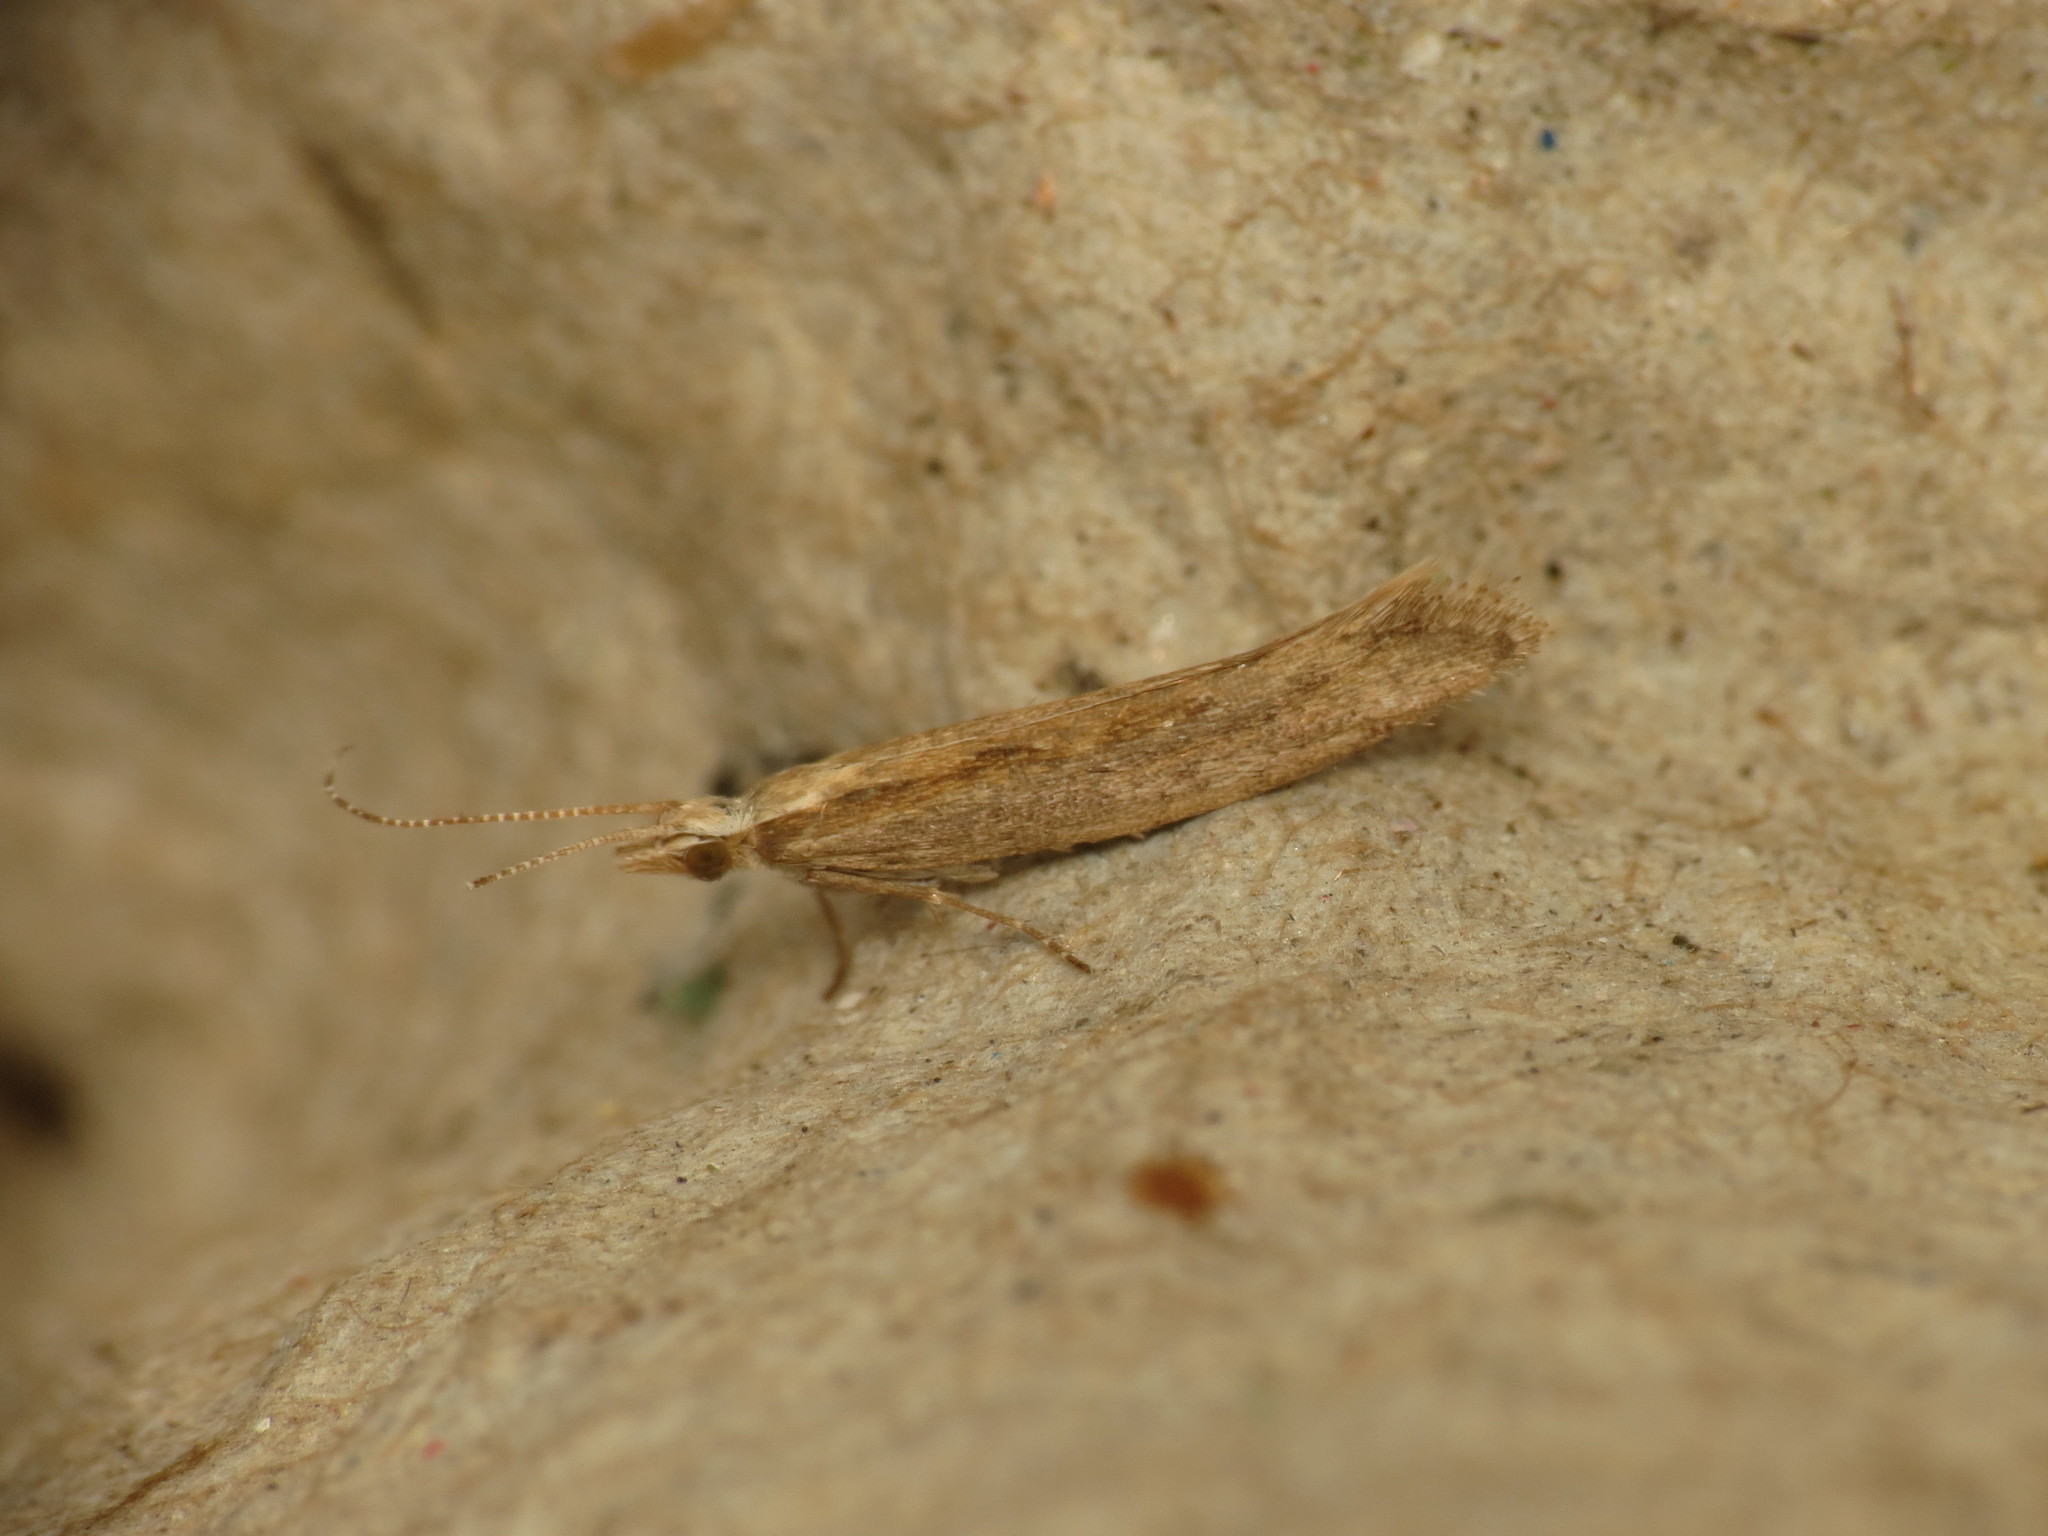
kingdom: Animalia
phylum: Arthropoda
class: Insecta
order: Lepidoptera
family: Plutellidae
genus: Plutella
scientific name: Plutella xylostella
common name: Diamond-back moth
